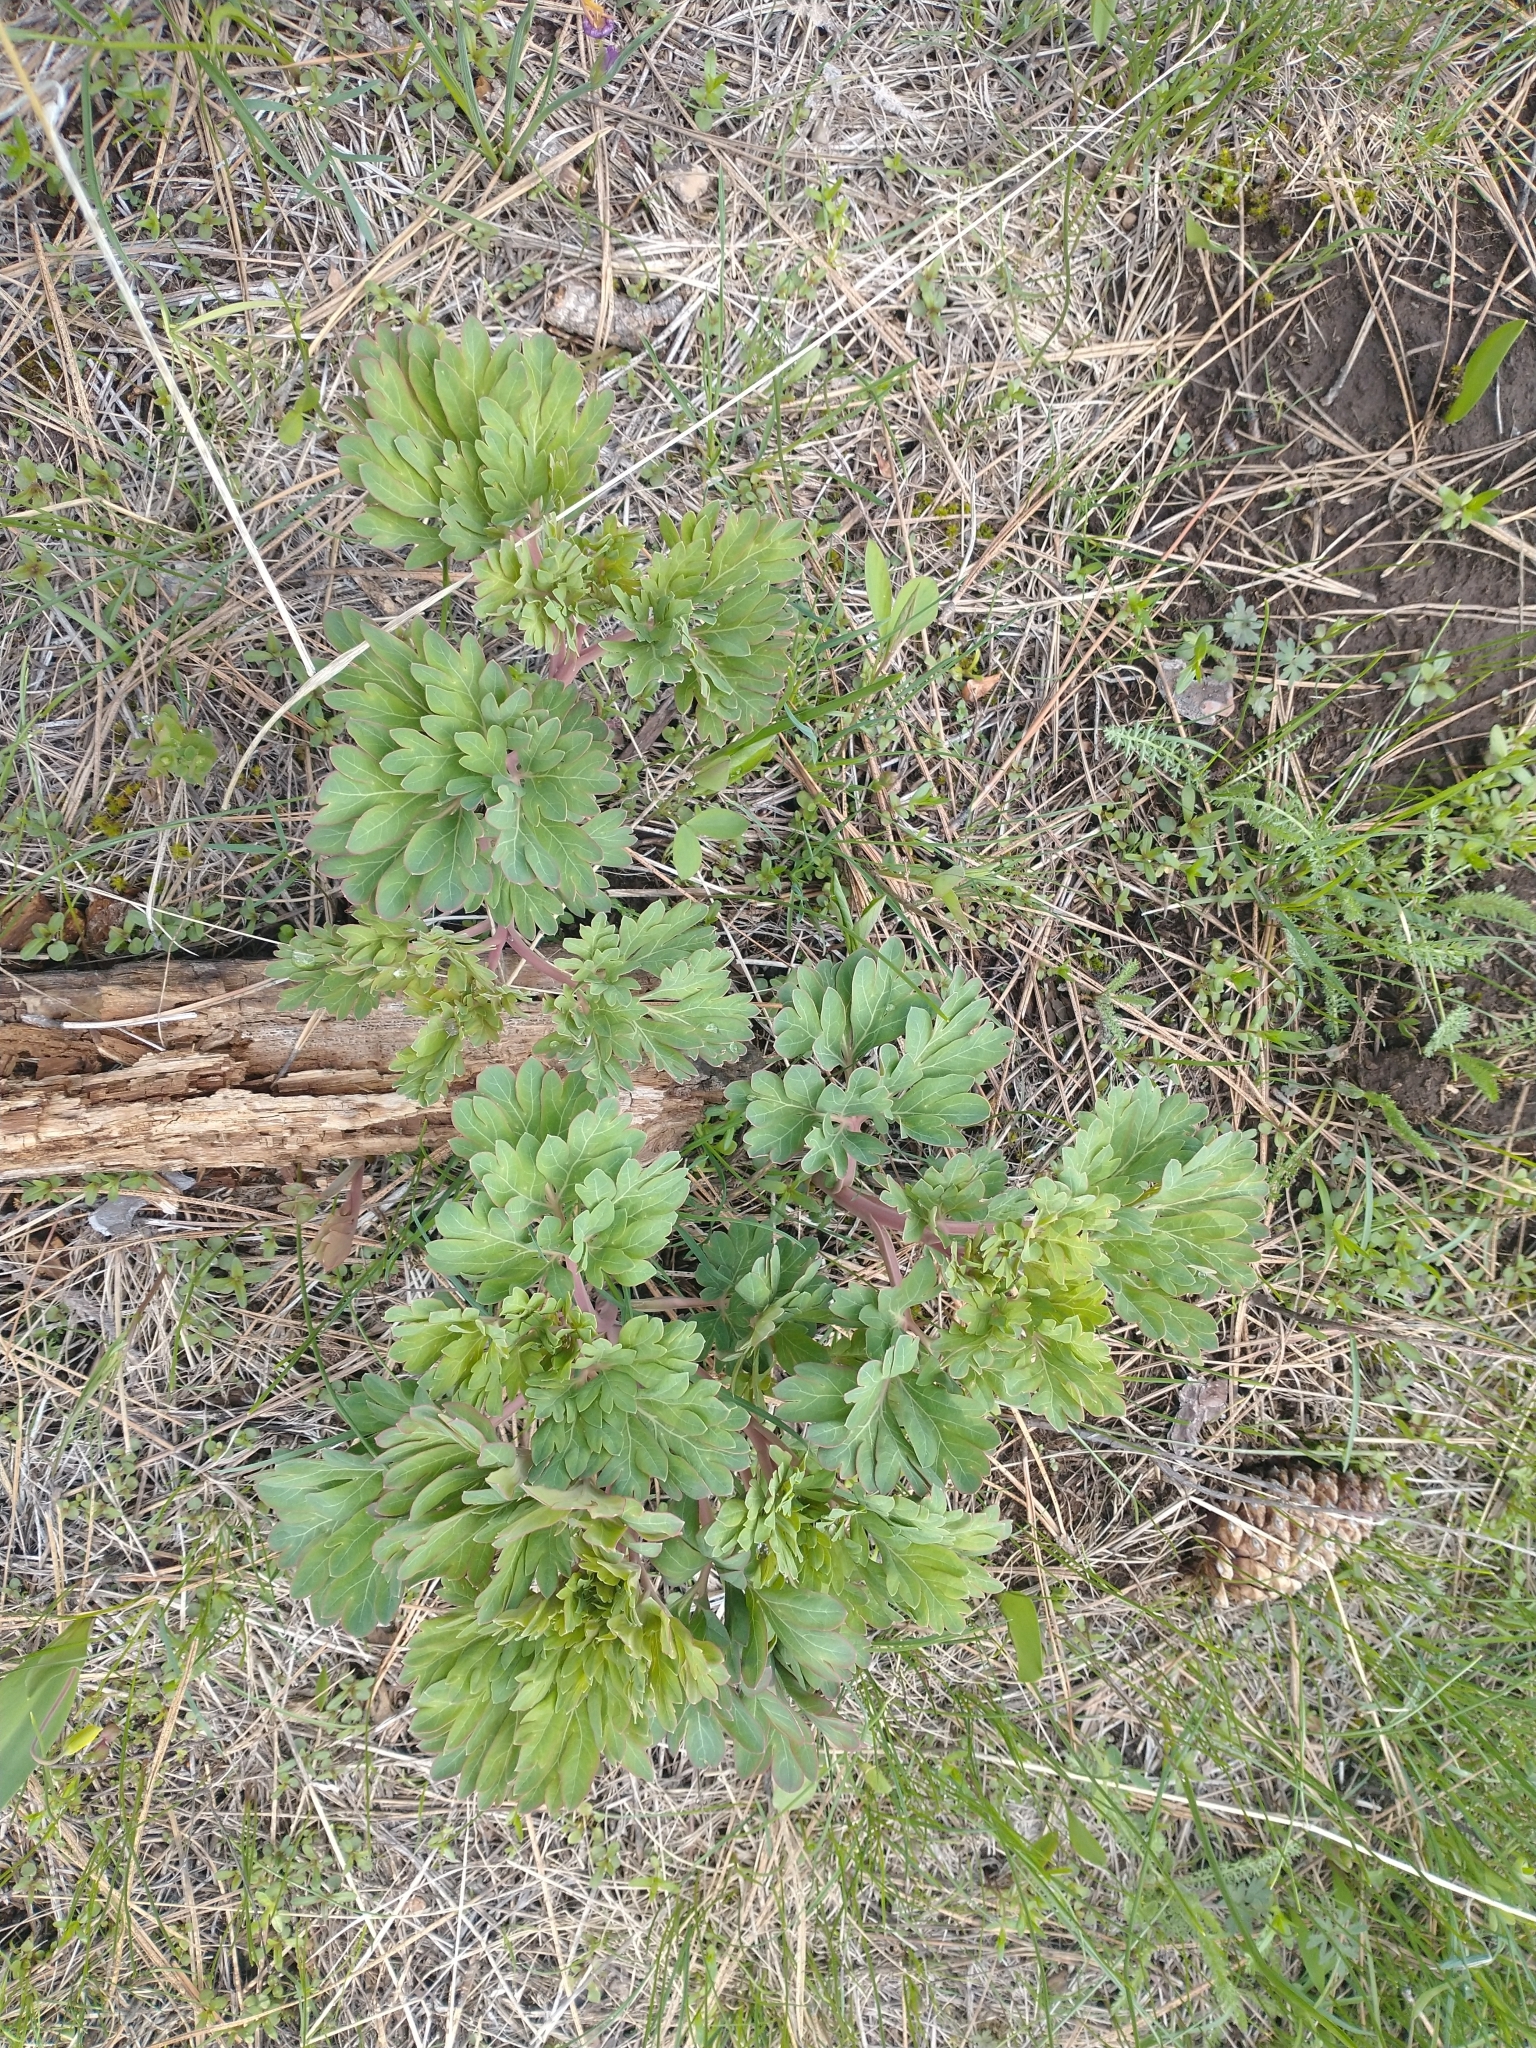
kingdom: Plantae
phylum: Tracheophyta
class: Magnoliopsida
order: Saxifragales
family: Paeoniaceae
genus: Paeonia
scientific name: Paeonia brownii
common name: Brown's peony
